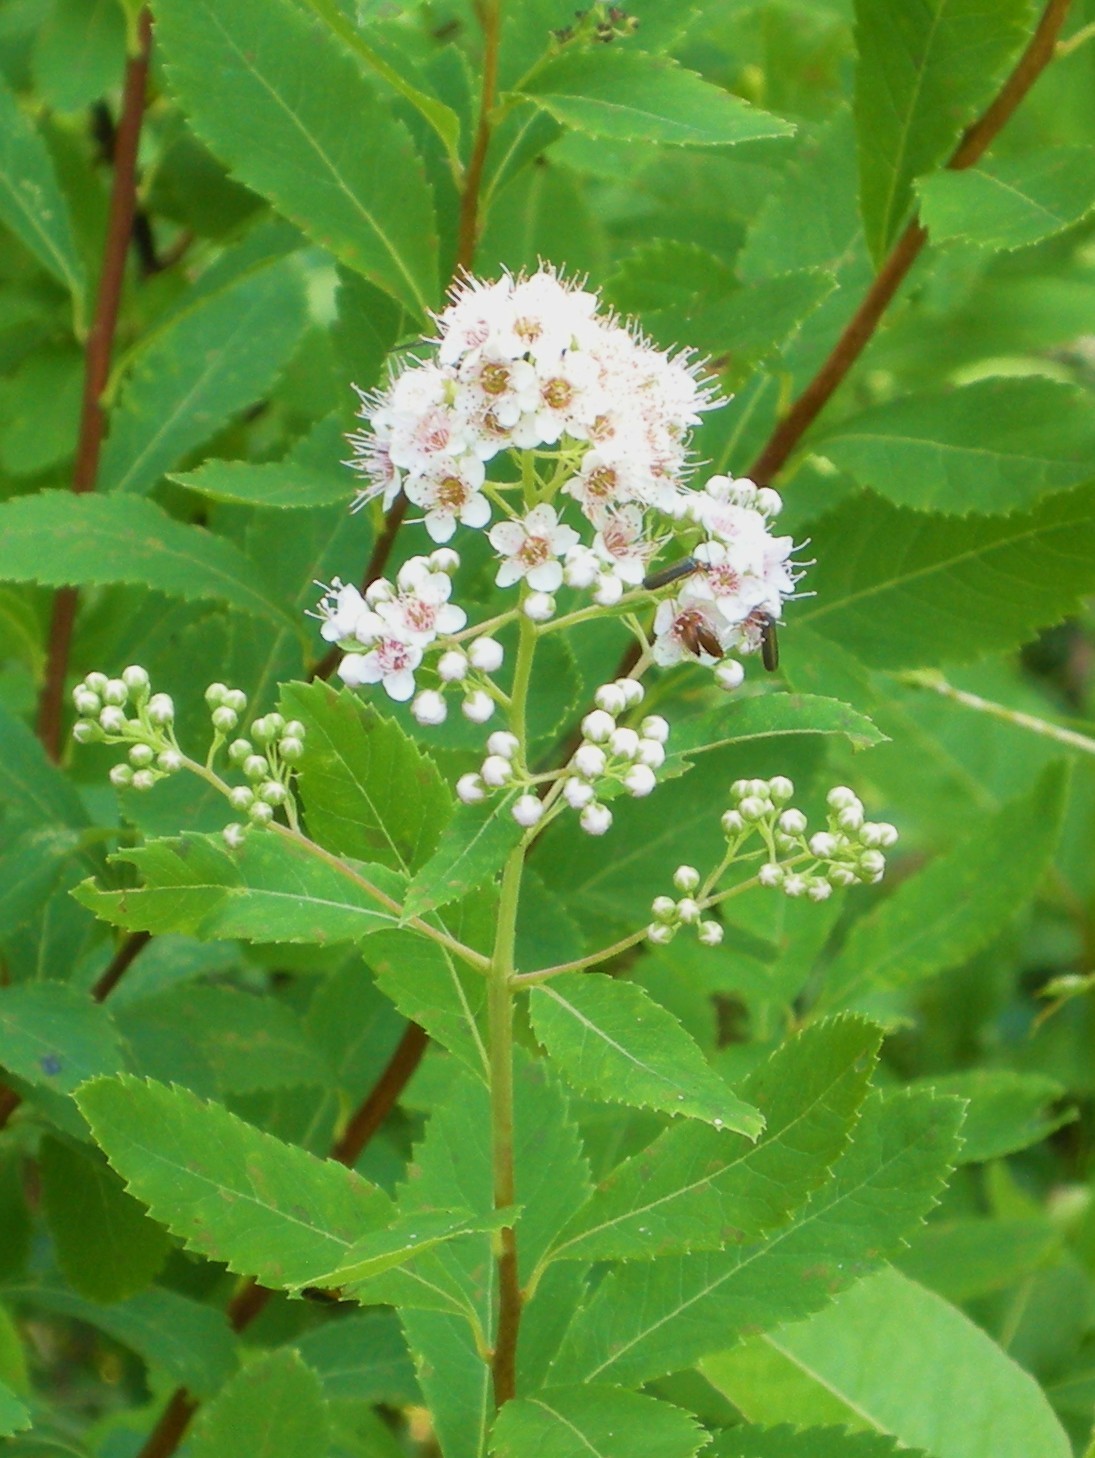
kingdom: Plantae
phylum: Tracheophyta
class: Magnoliopsida
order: Rosales
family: Rosaceae
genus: Spiraea
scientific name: Spiraea alba
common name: Pale bridewort
